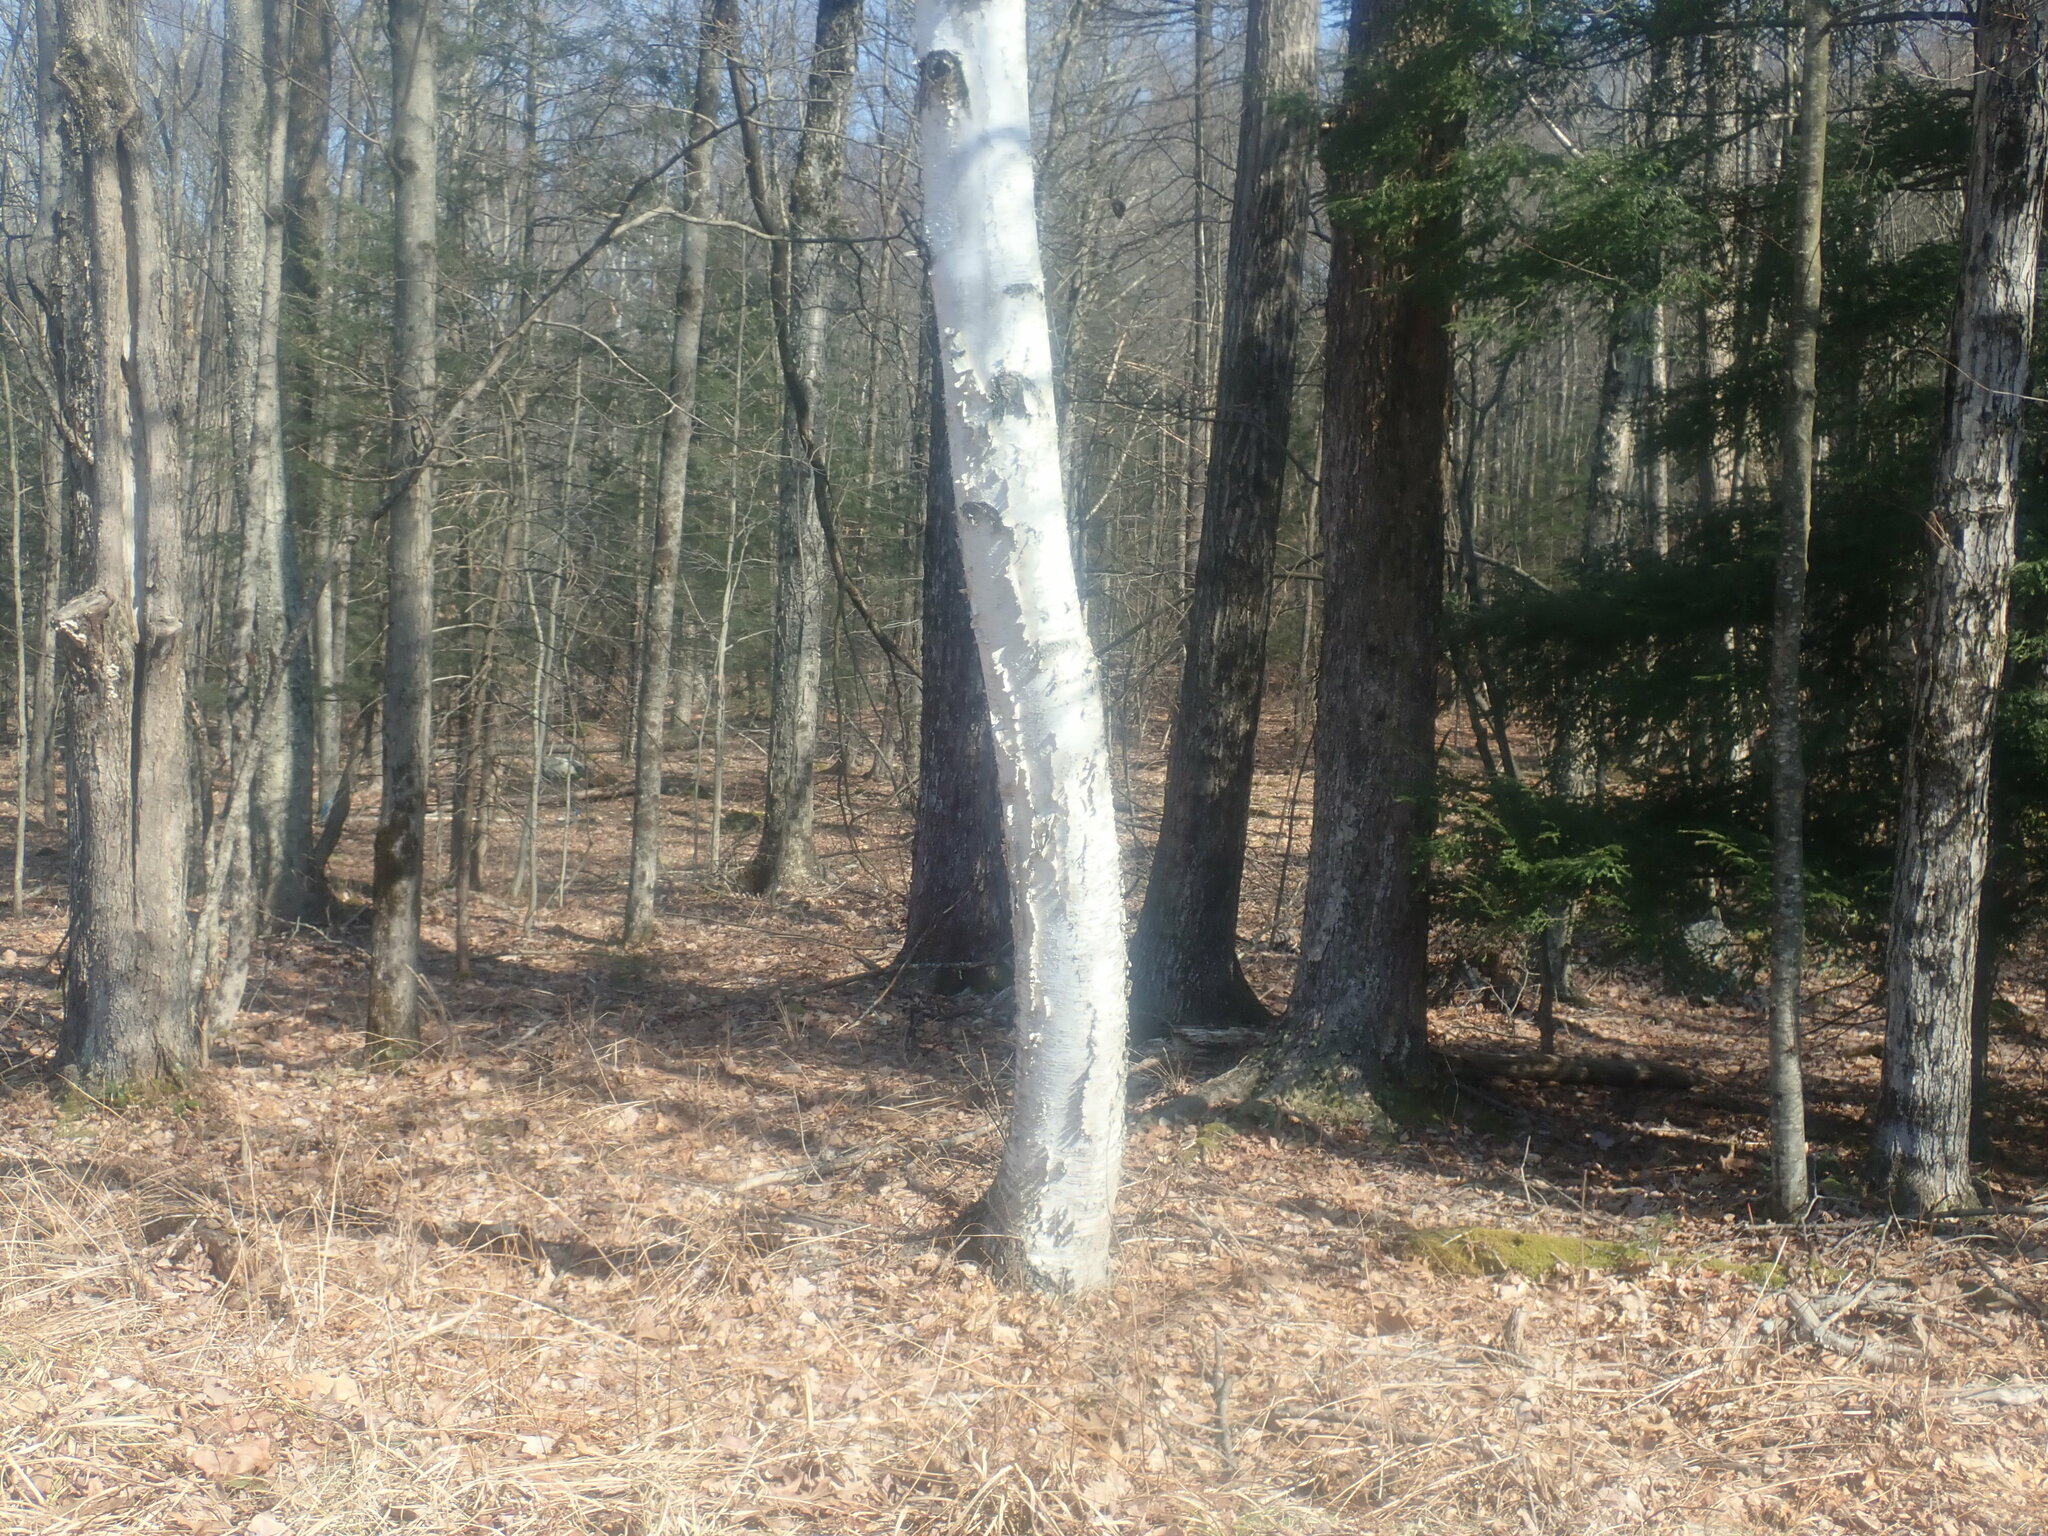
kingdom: Plantae
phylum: Tracheophyta
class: Magnoliopsida
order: Fagales
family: Betulaceae
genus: Betula
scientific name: Betula papyrifera
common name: Paper birch
